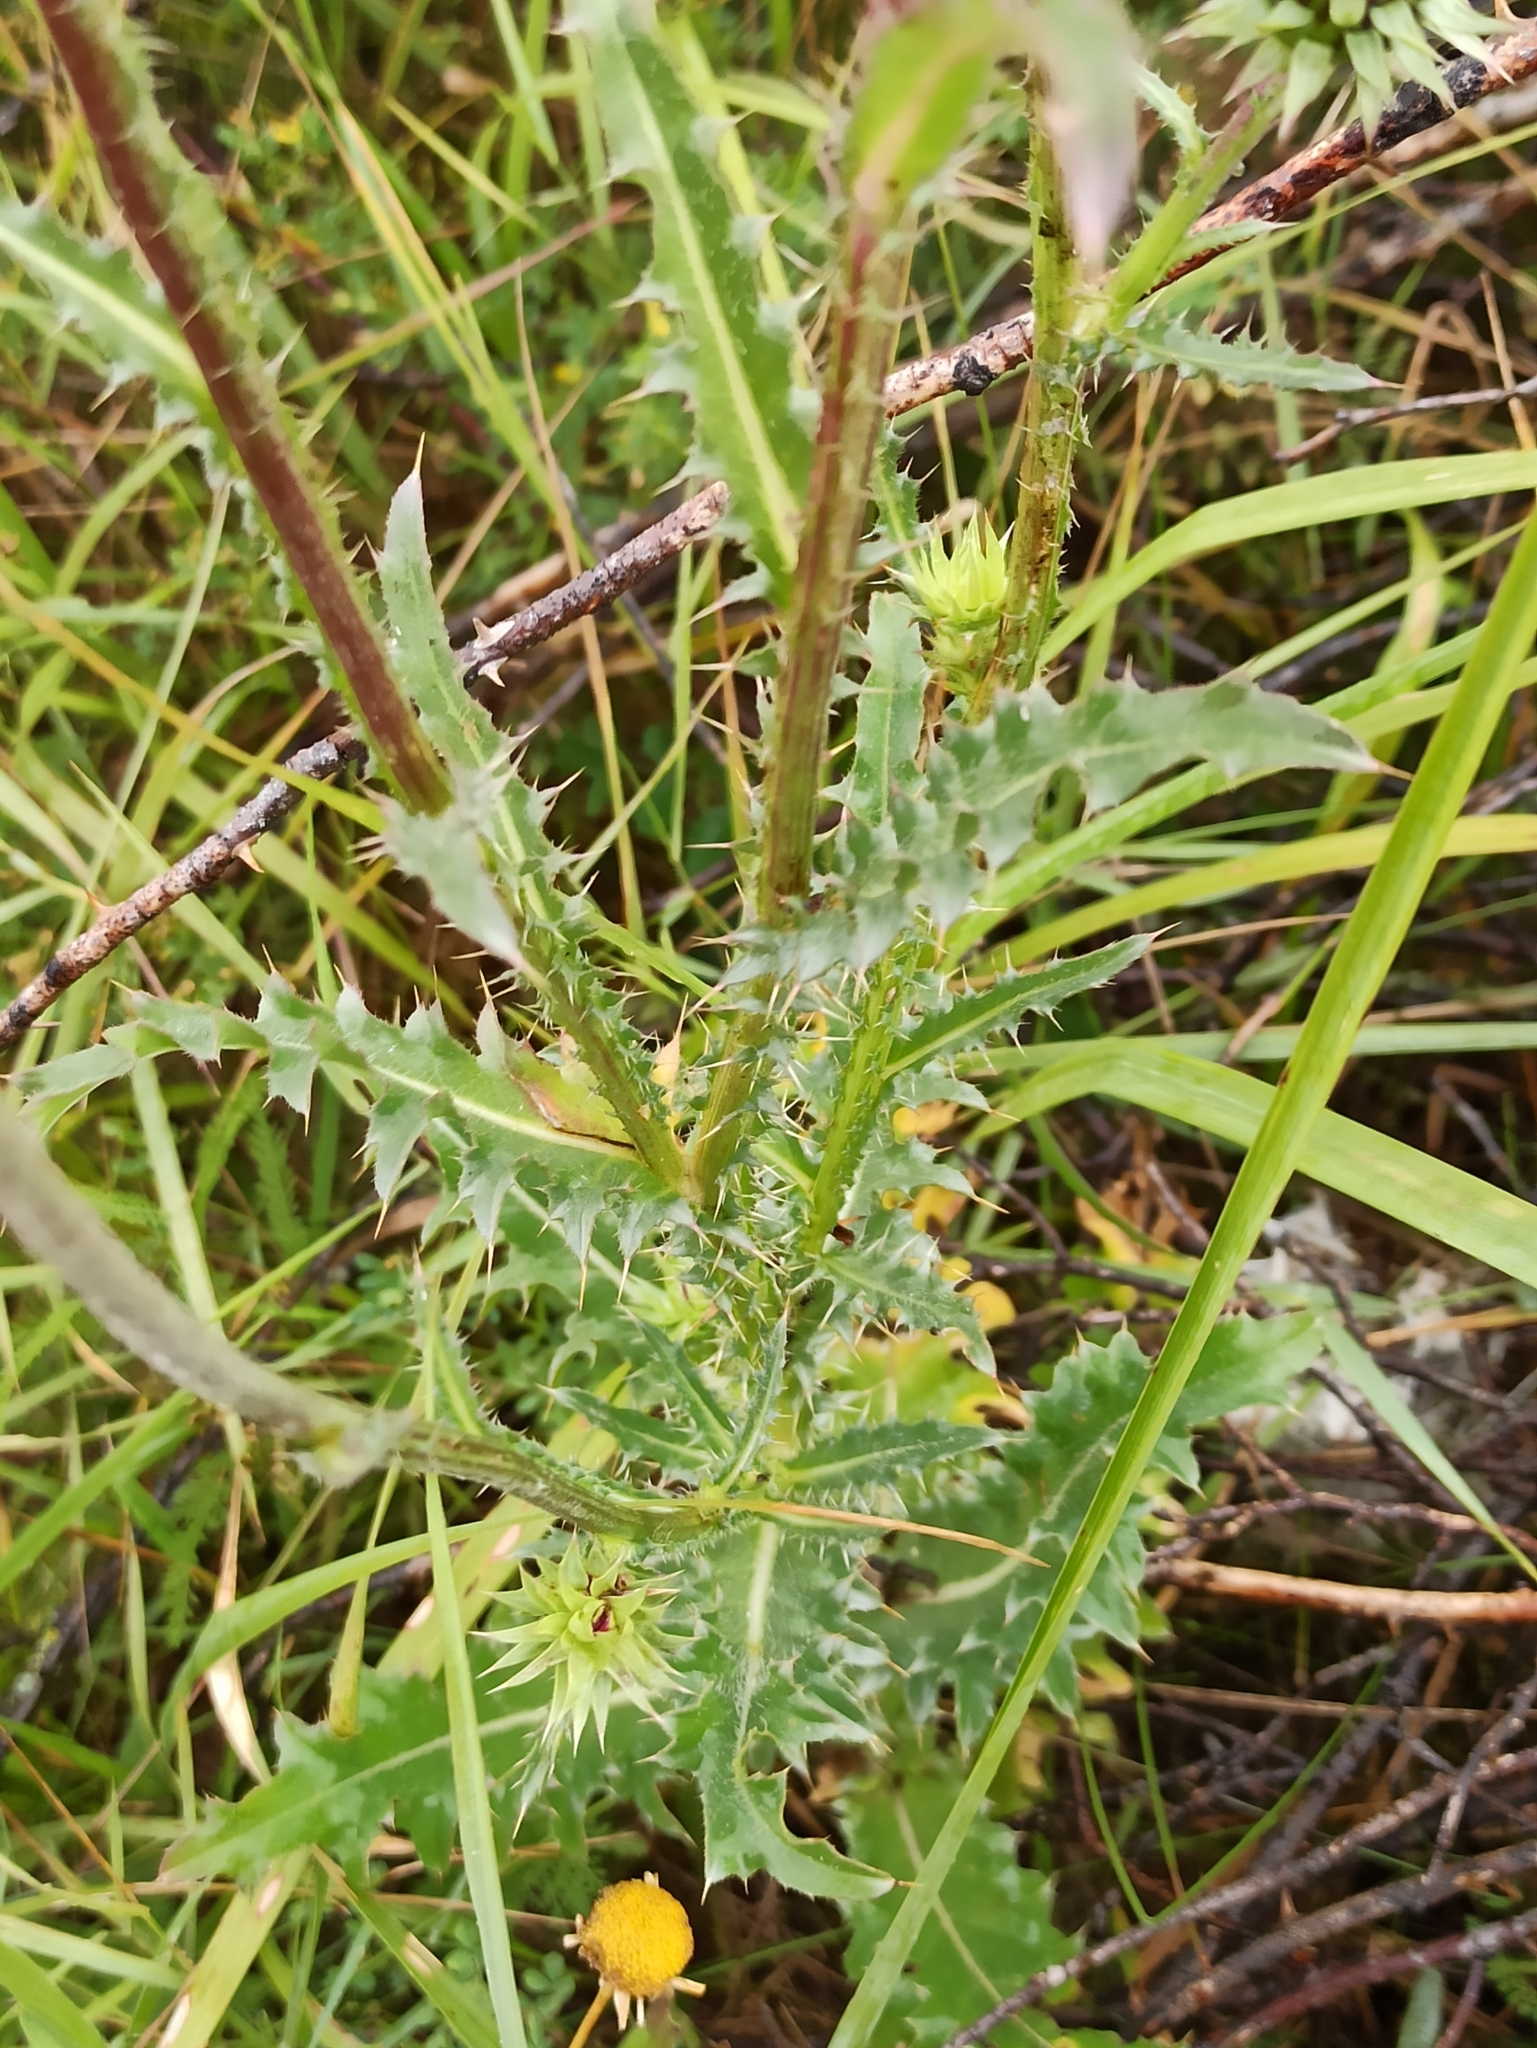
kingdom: Plantae
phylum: Tracheophyta
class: Magnoliopsida
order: Asterales
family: Asteraceae
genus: Carduus
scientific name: Carduus nutans
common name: Musk thistle
